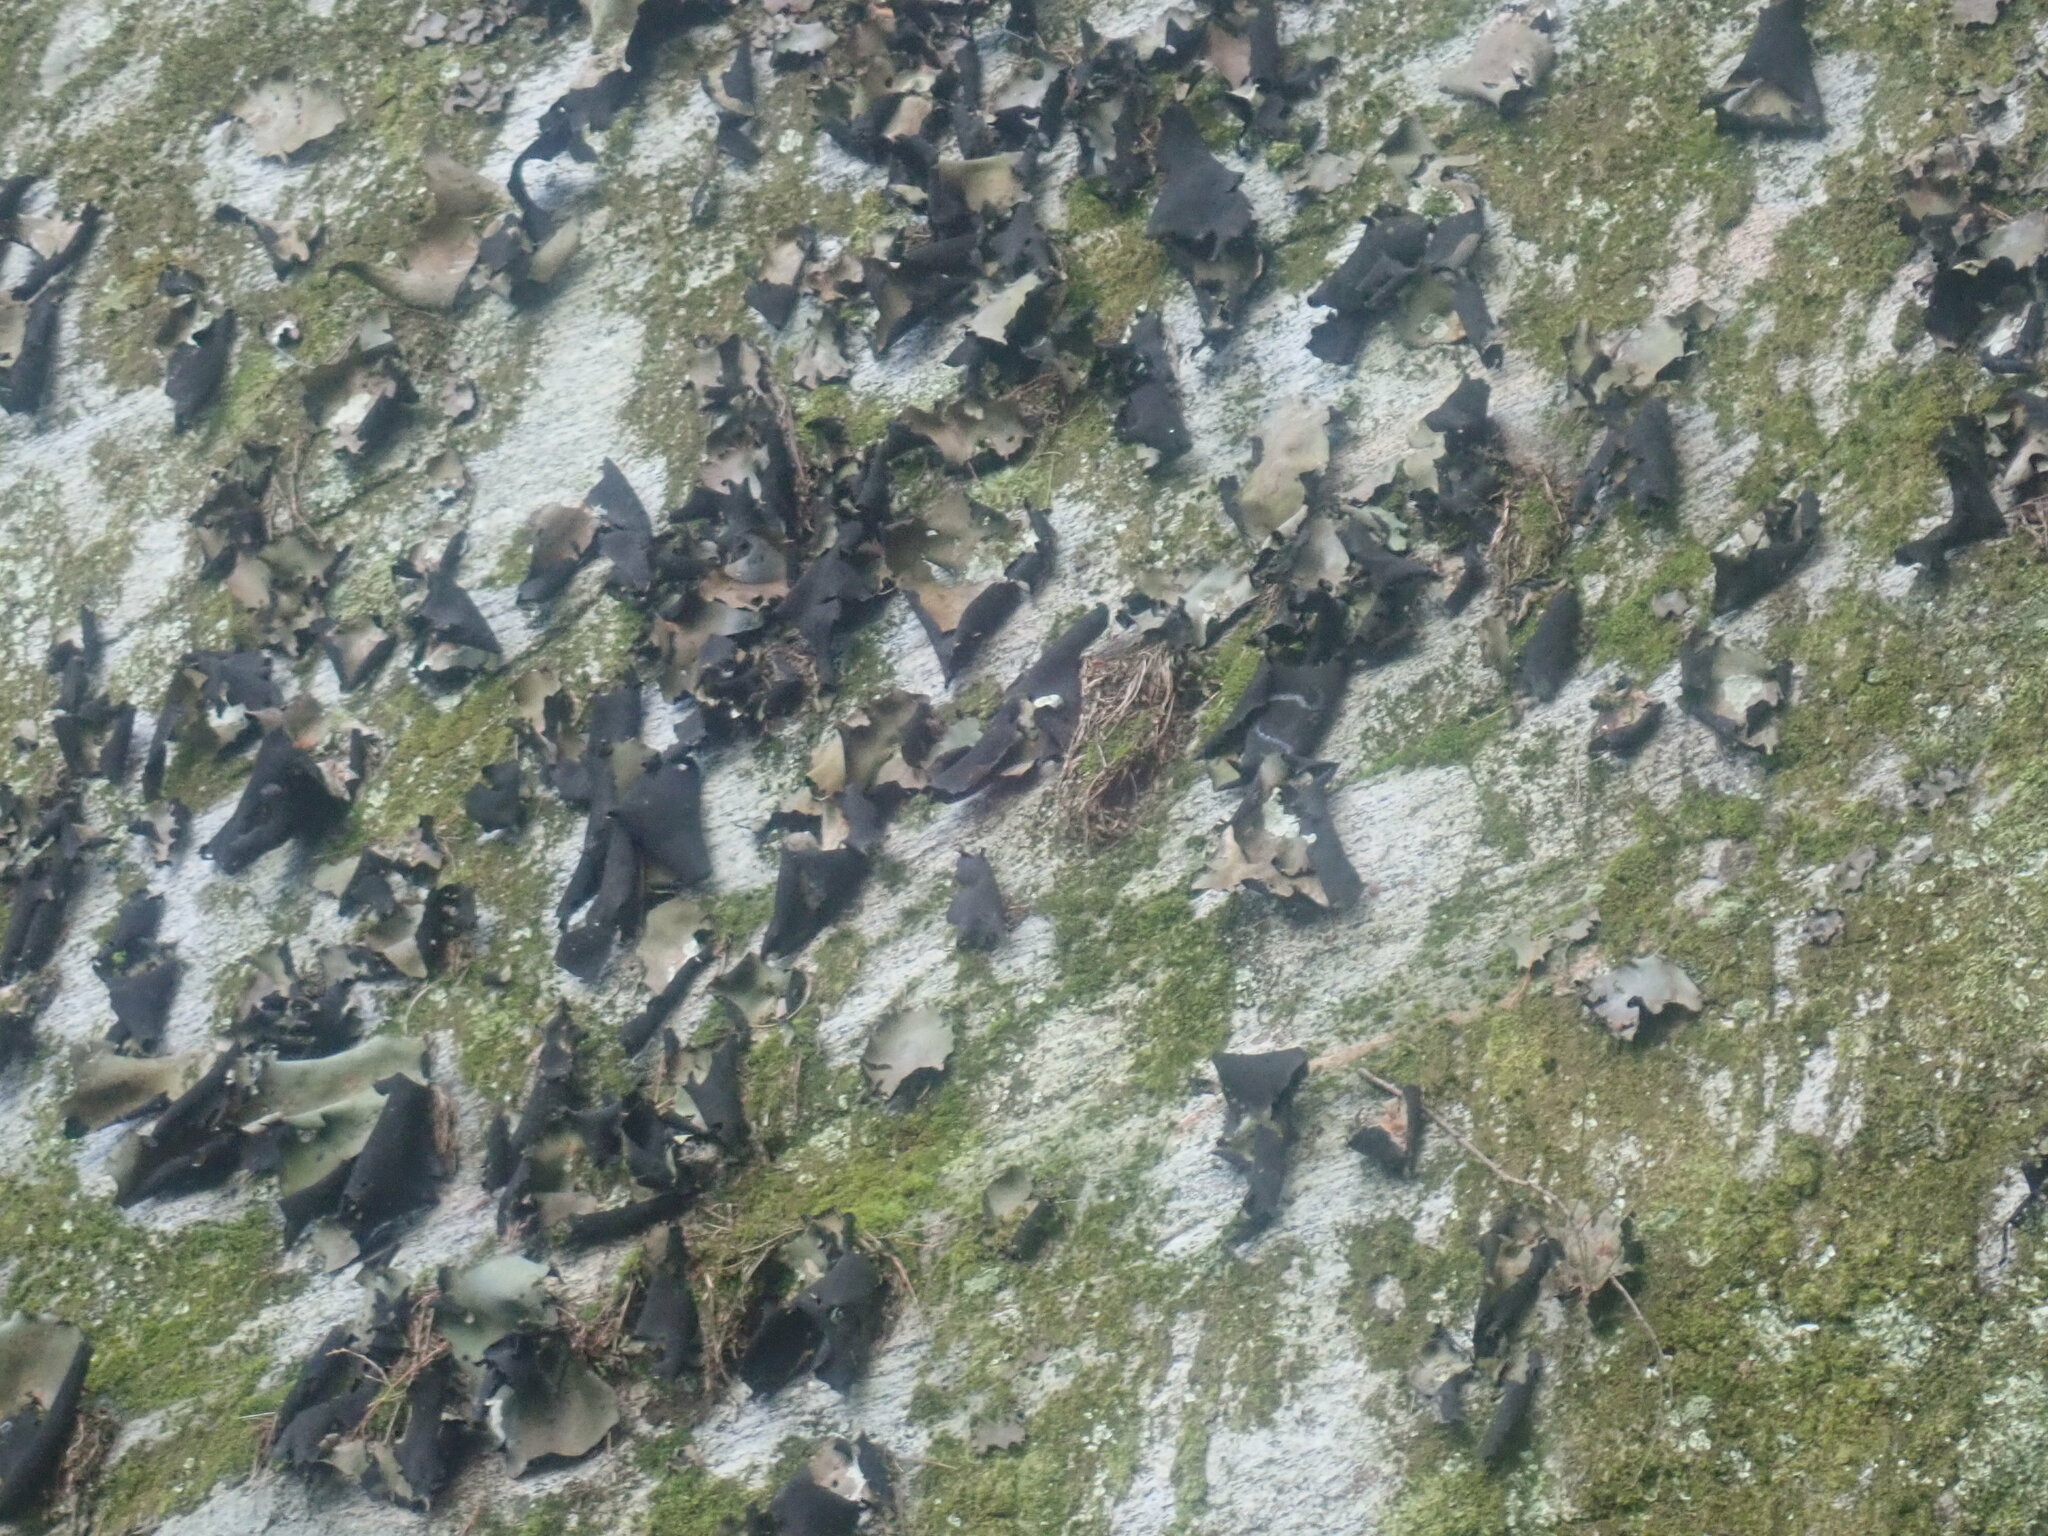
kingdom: Fungi
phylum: Ascomycota
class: Lecanoromycetes
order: Umbilicariales
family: Umbilicariaceae
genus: Umbilicaria
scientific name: Umbilicaria mammulata
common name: Smooth rock tripe
